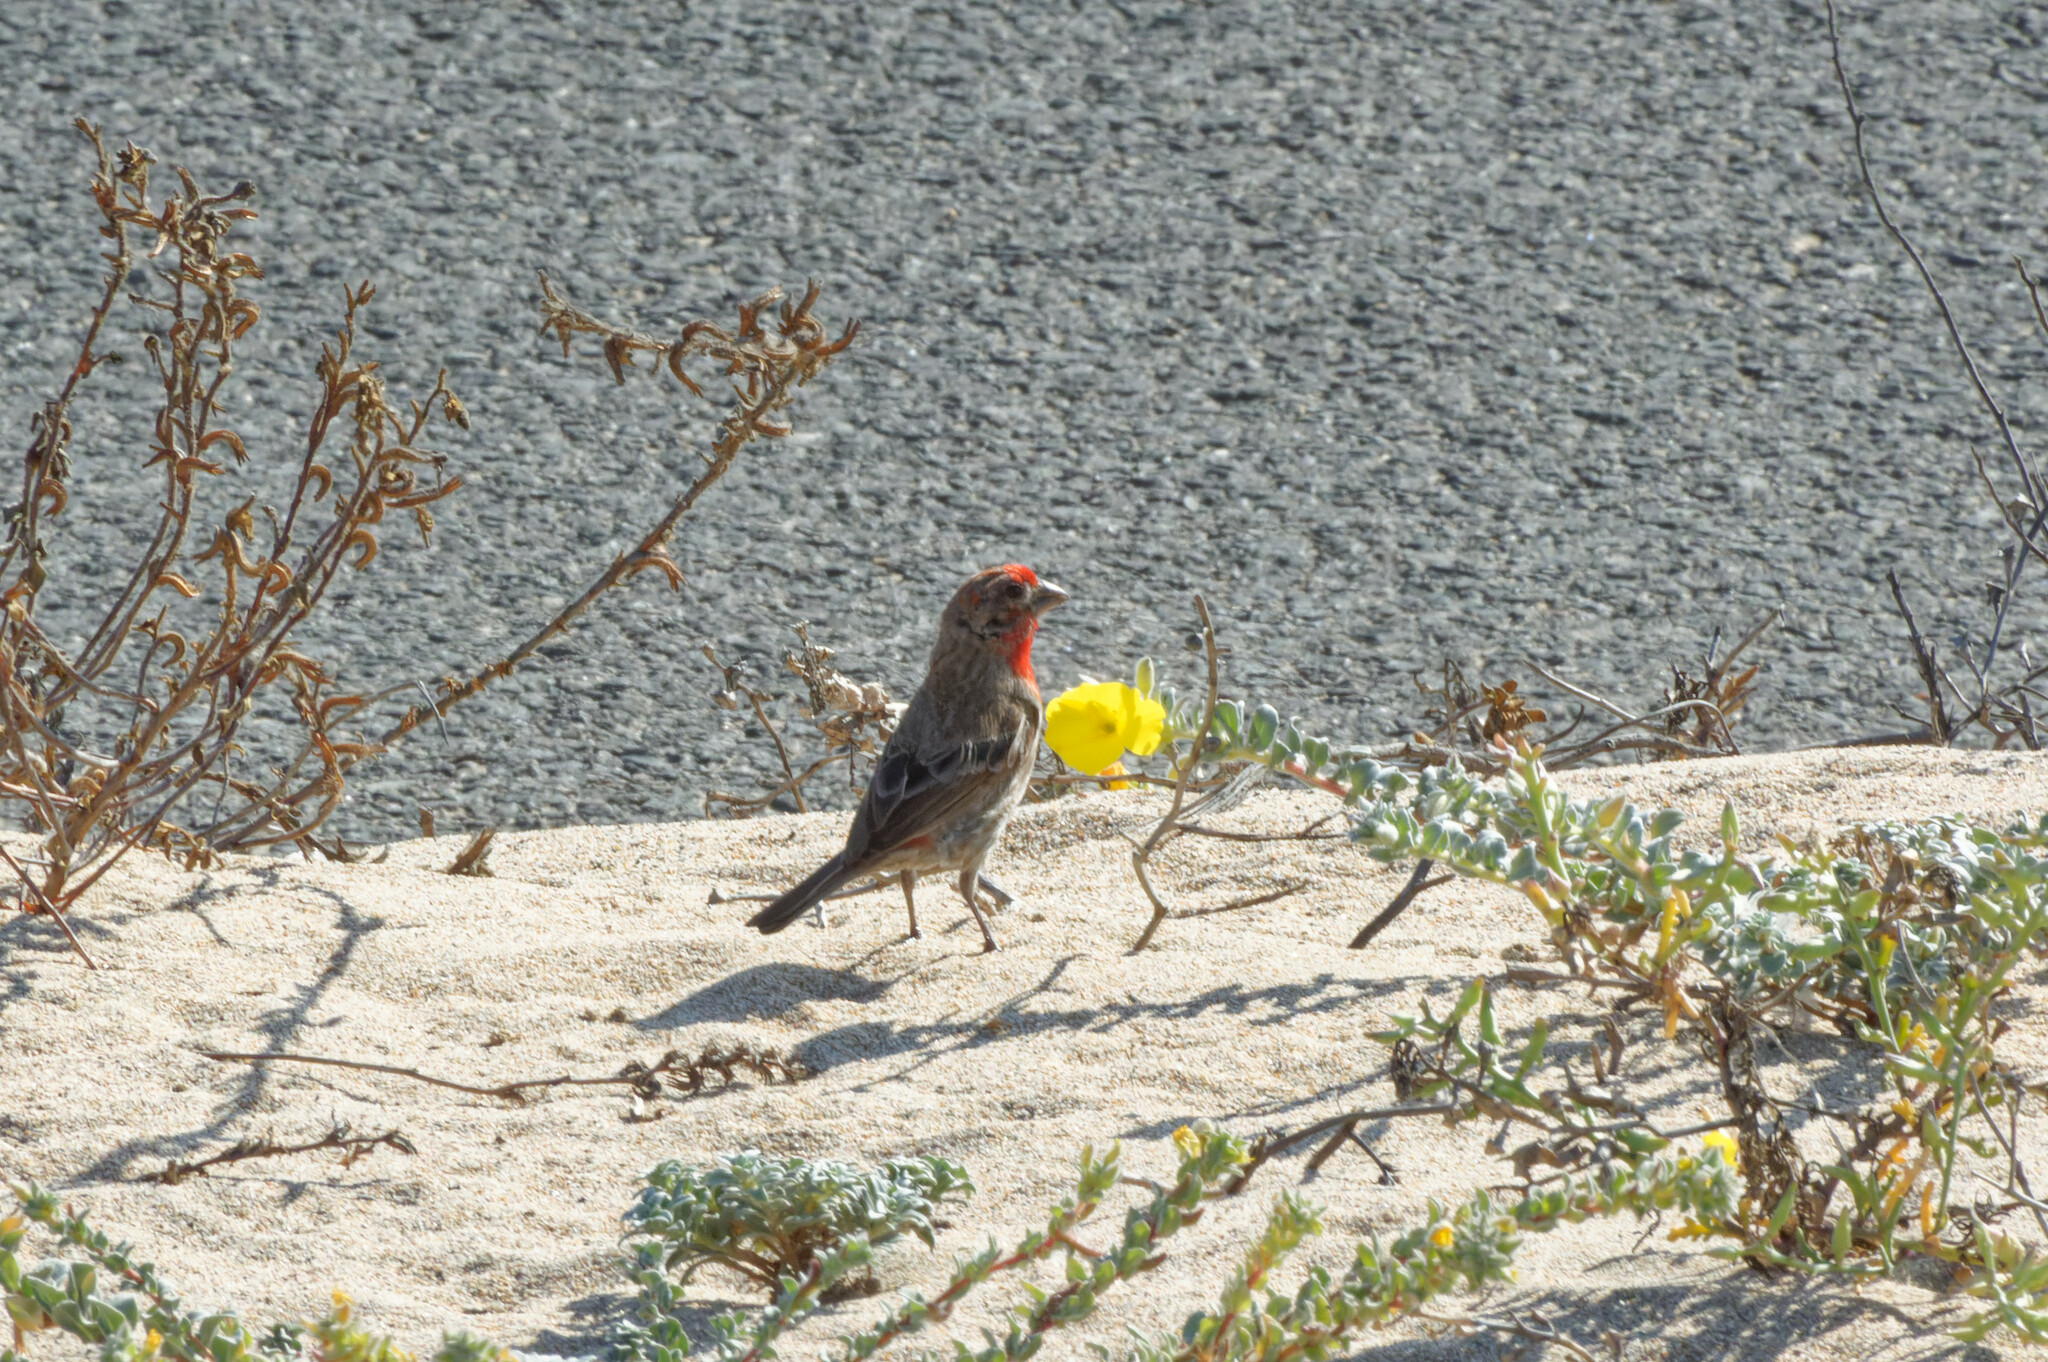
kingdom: Animalia
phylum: Chordata
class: Aves
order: Passeriformes
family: Fringillidae
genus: Haemorhous
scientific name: Haemorhous mexicanus
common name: House finch
